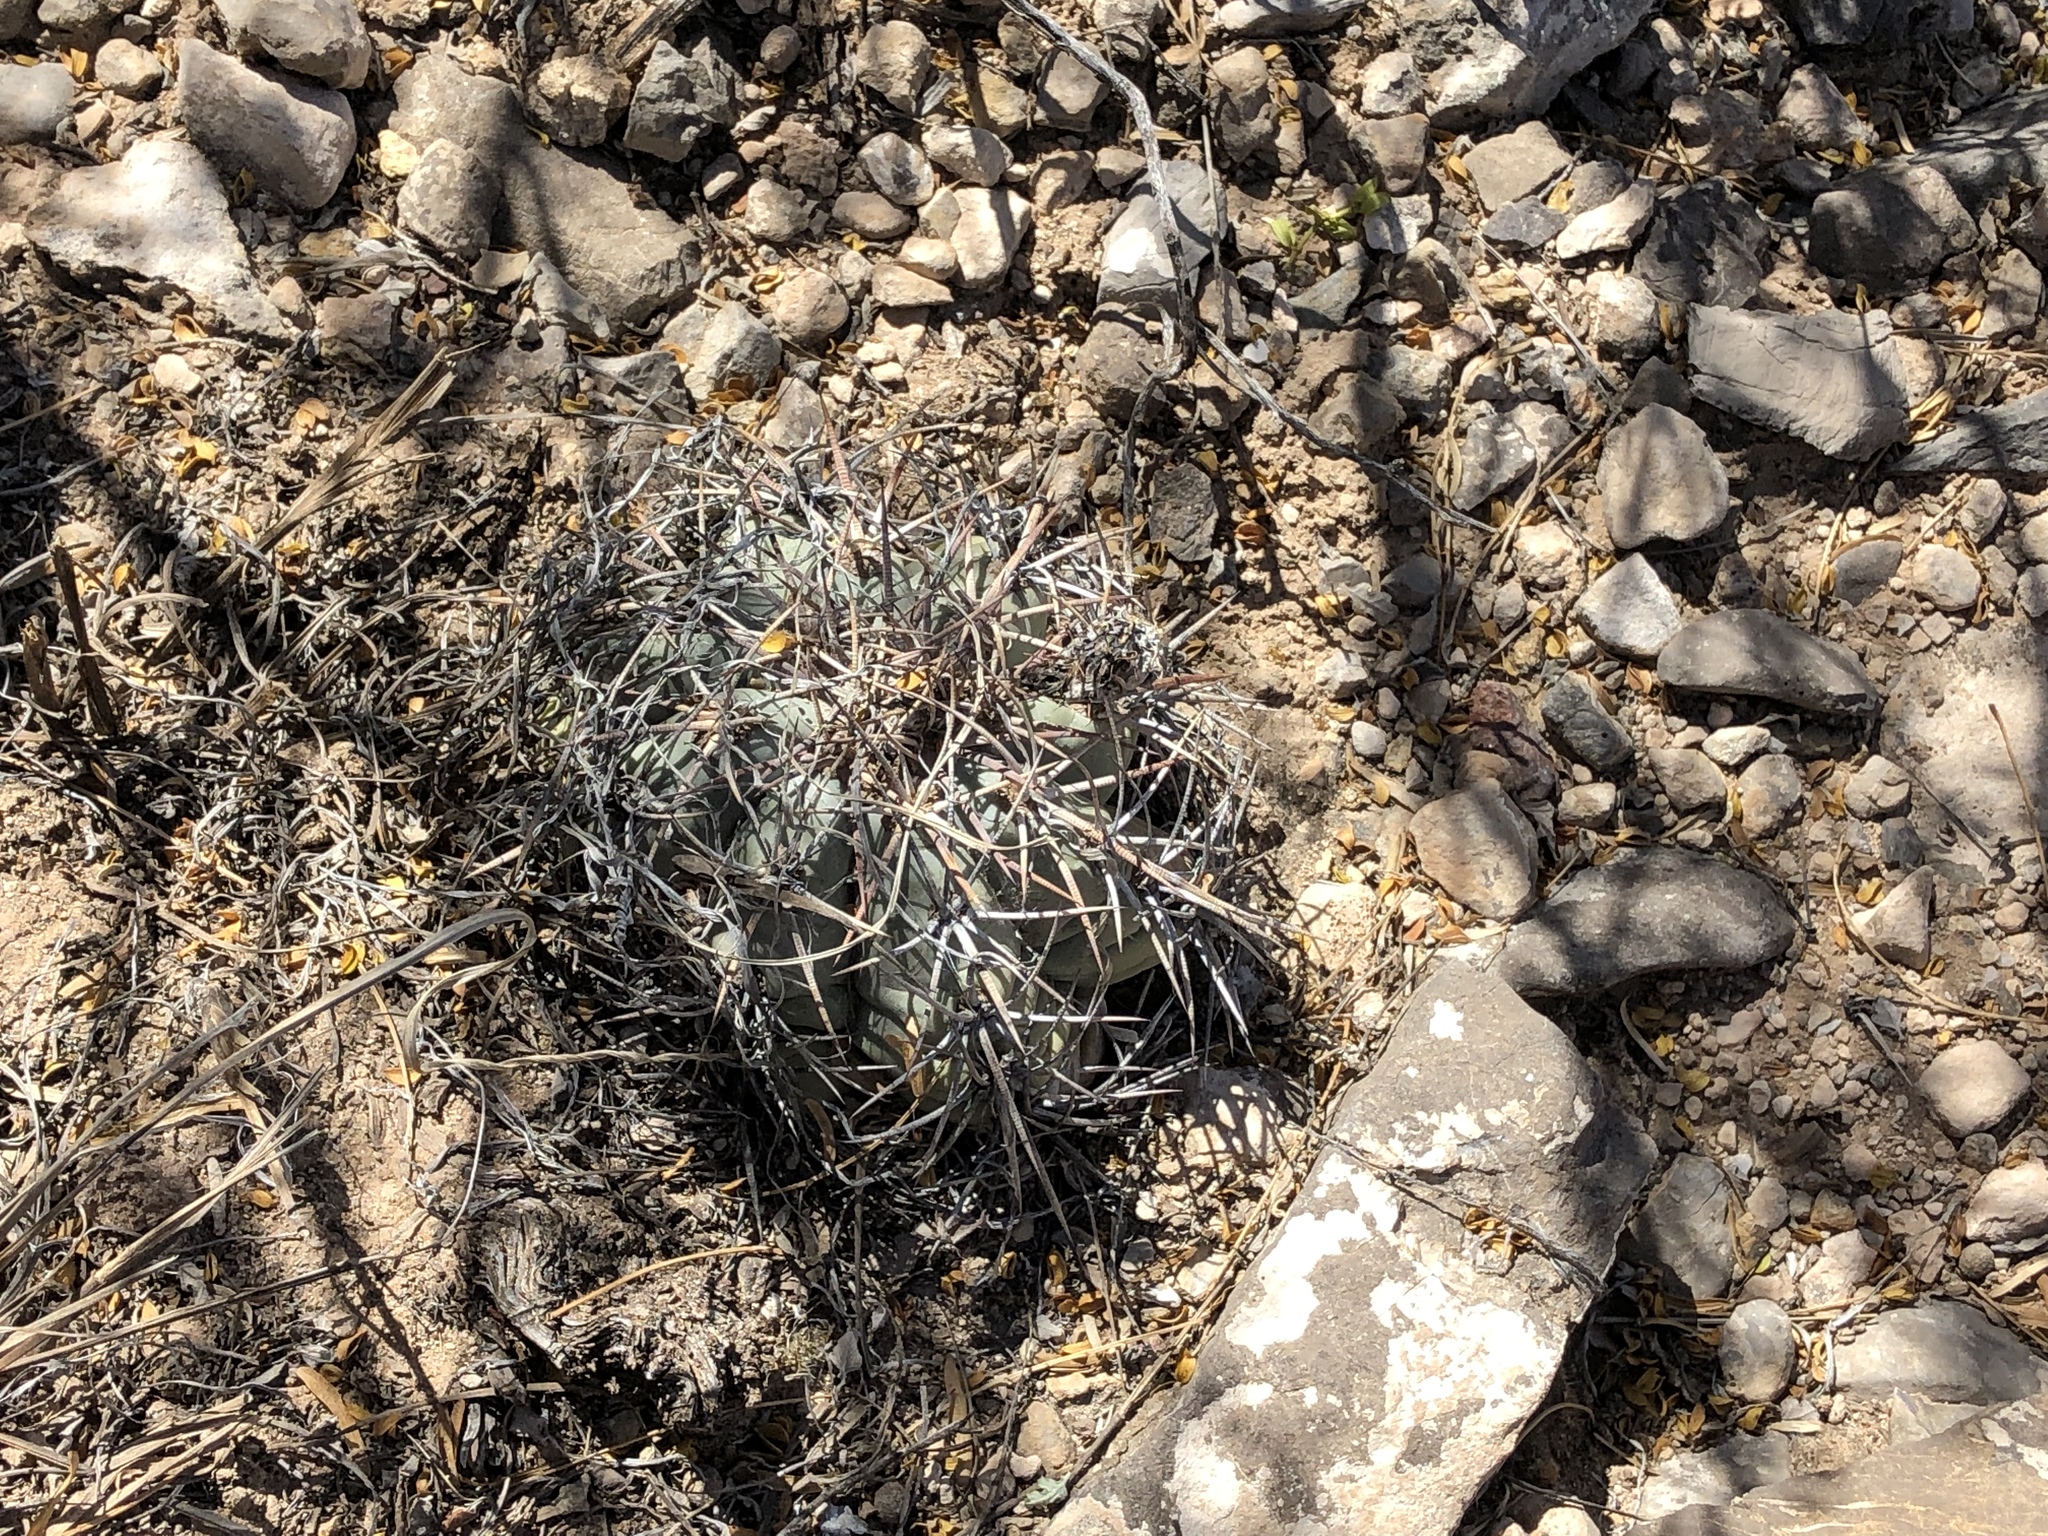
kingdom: Plantae
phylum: Tracheophyta
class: Magnoliopsida
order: Caryophyllales
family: Cactaceae
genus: Echinocactus
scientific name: Echinocactus horizonthalonius
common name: Devilshead
